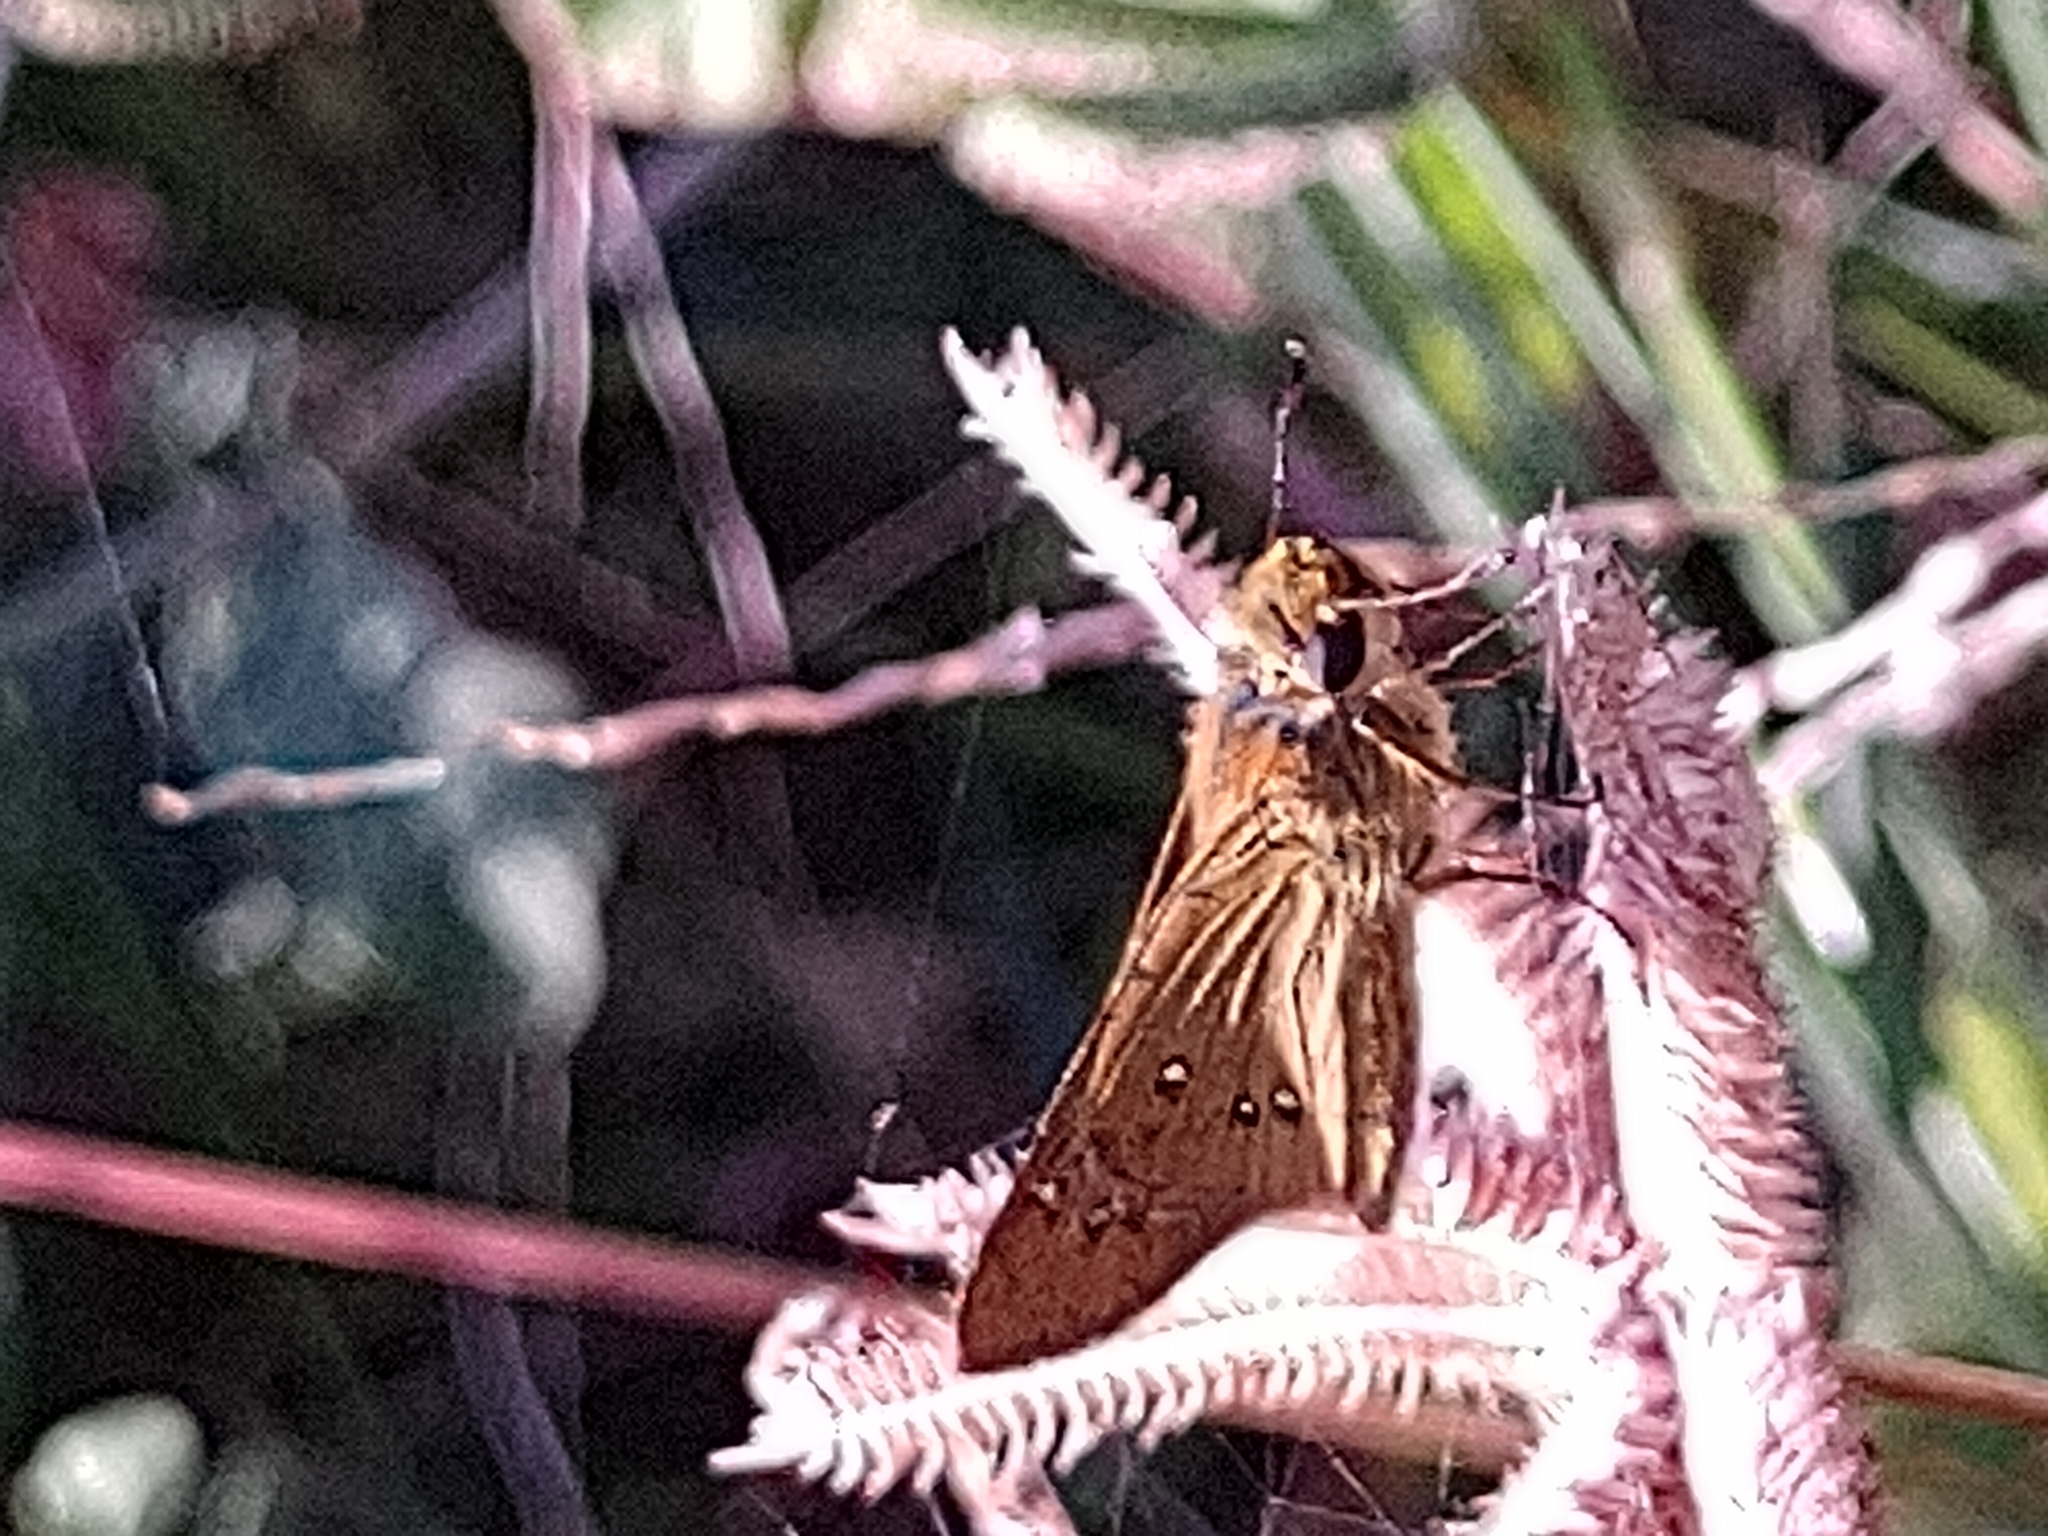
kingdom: Animalia
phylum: Arthropoda
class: Insecta
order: Lepidoptera
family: Hesperiidae
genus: Borbo
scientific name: Borbo borbonica
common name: Olive-haired swift
